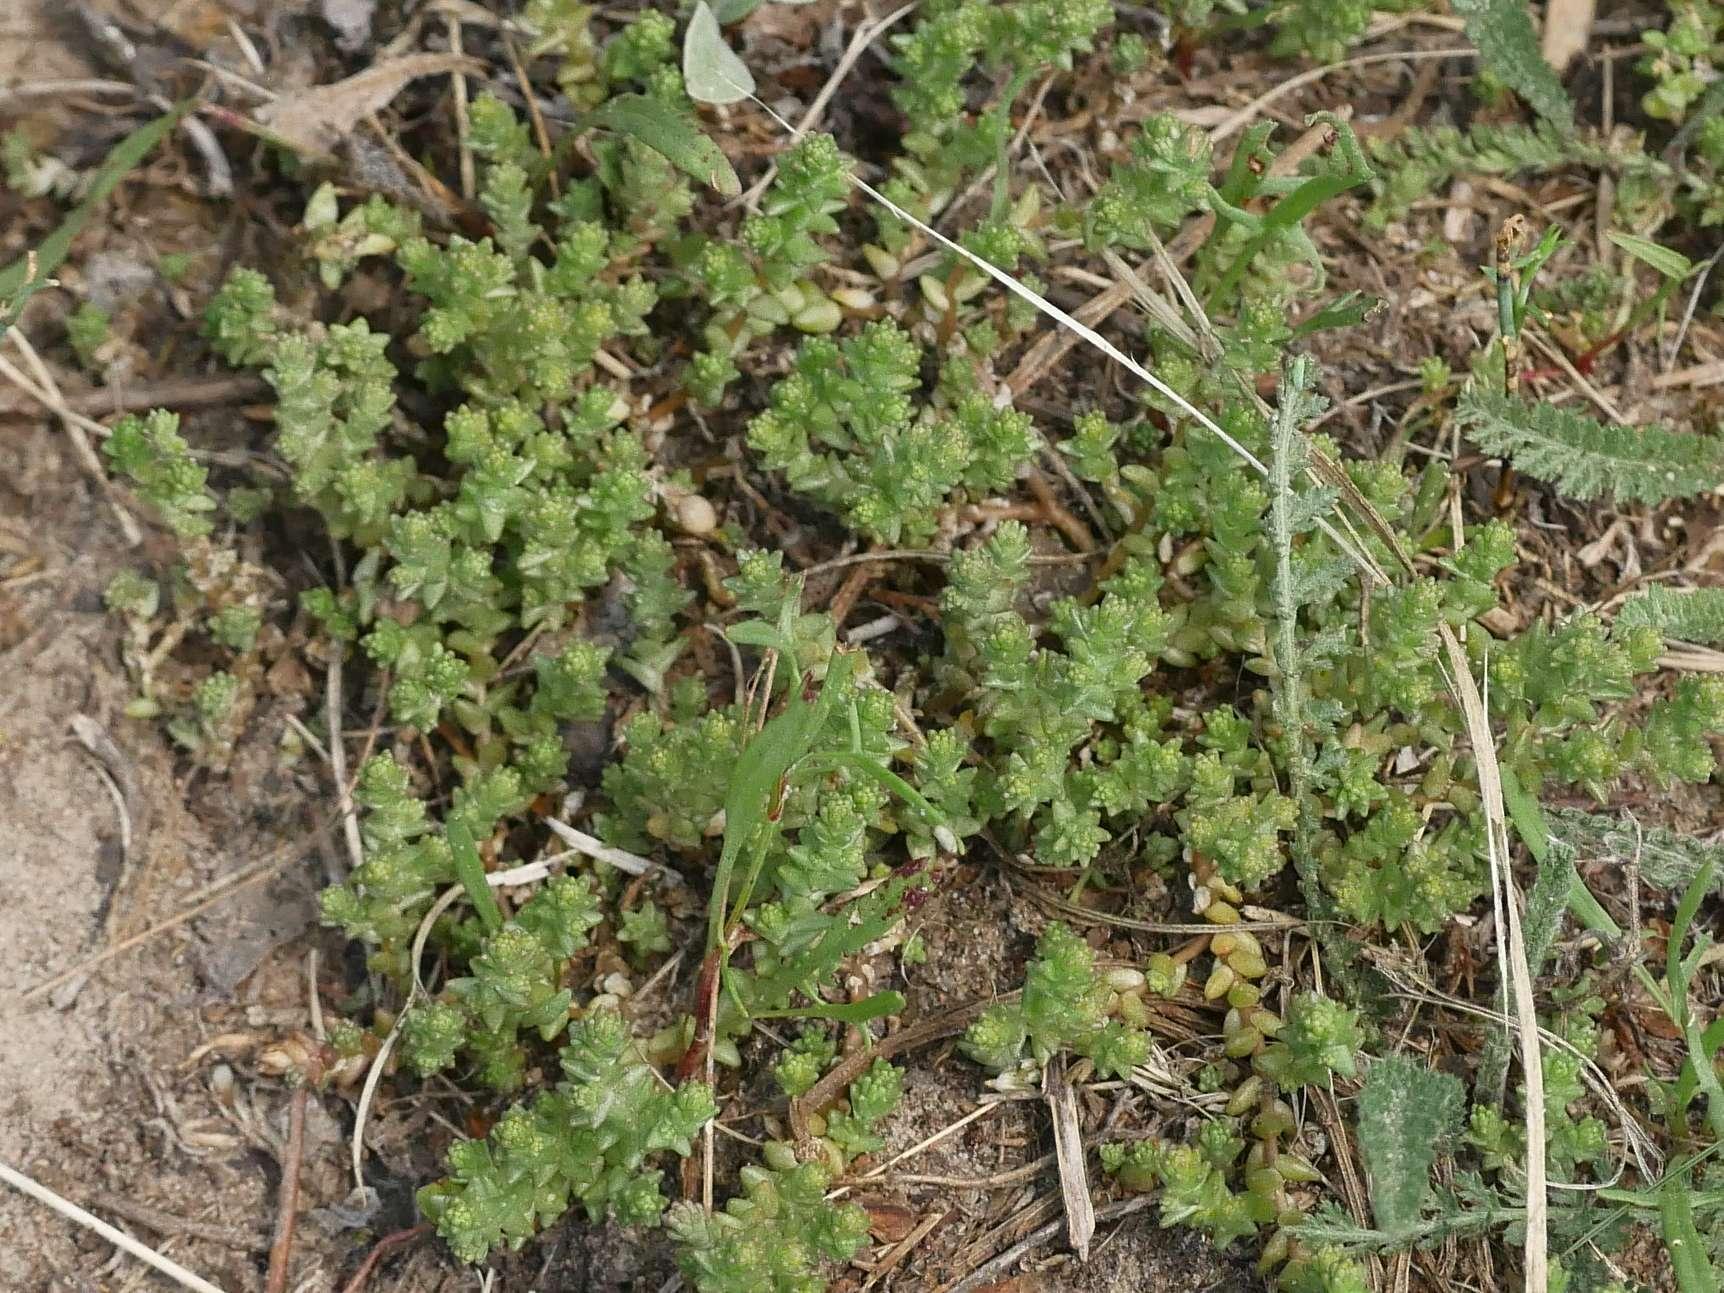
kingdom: Plantae
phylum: Tracheophyta
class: Magnoliopsida
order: Saxifragales
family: Crassulaceae
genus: Sedum
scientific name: Sedum acre
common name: Biting stonecrop
